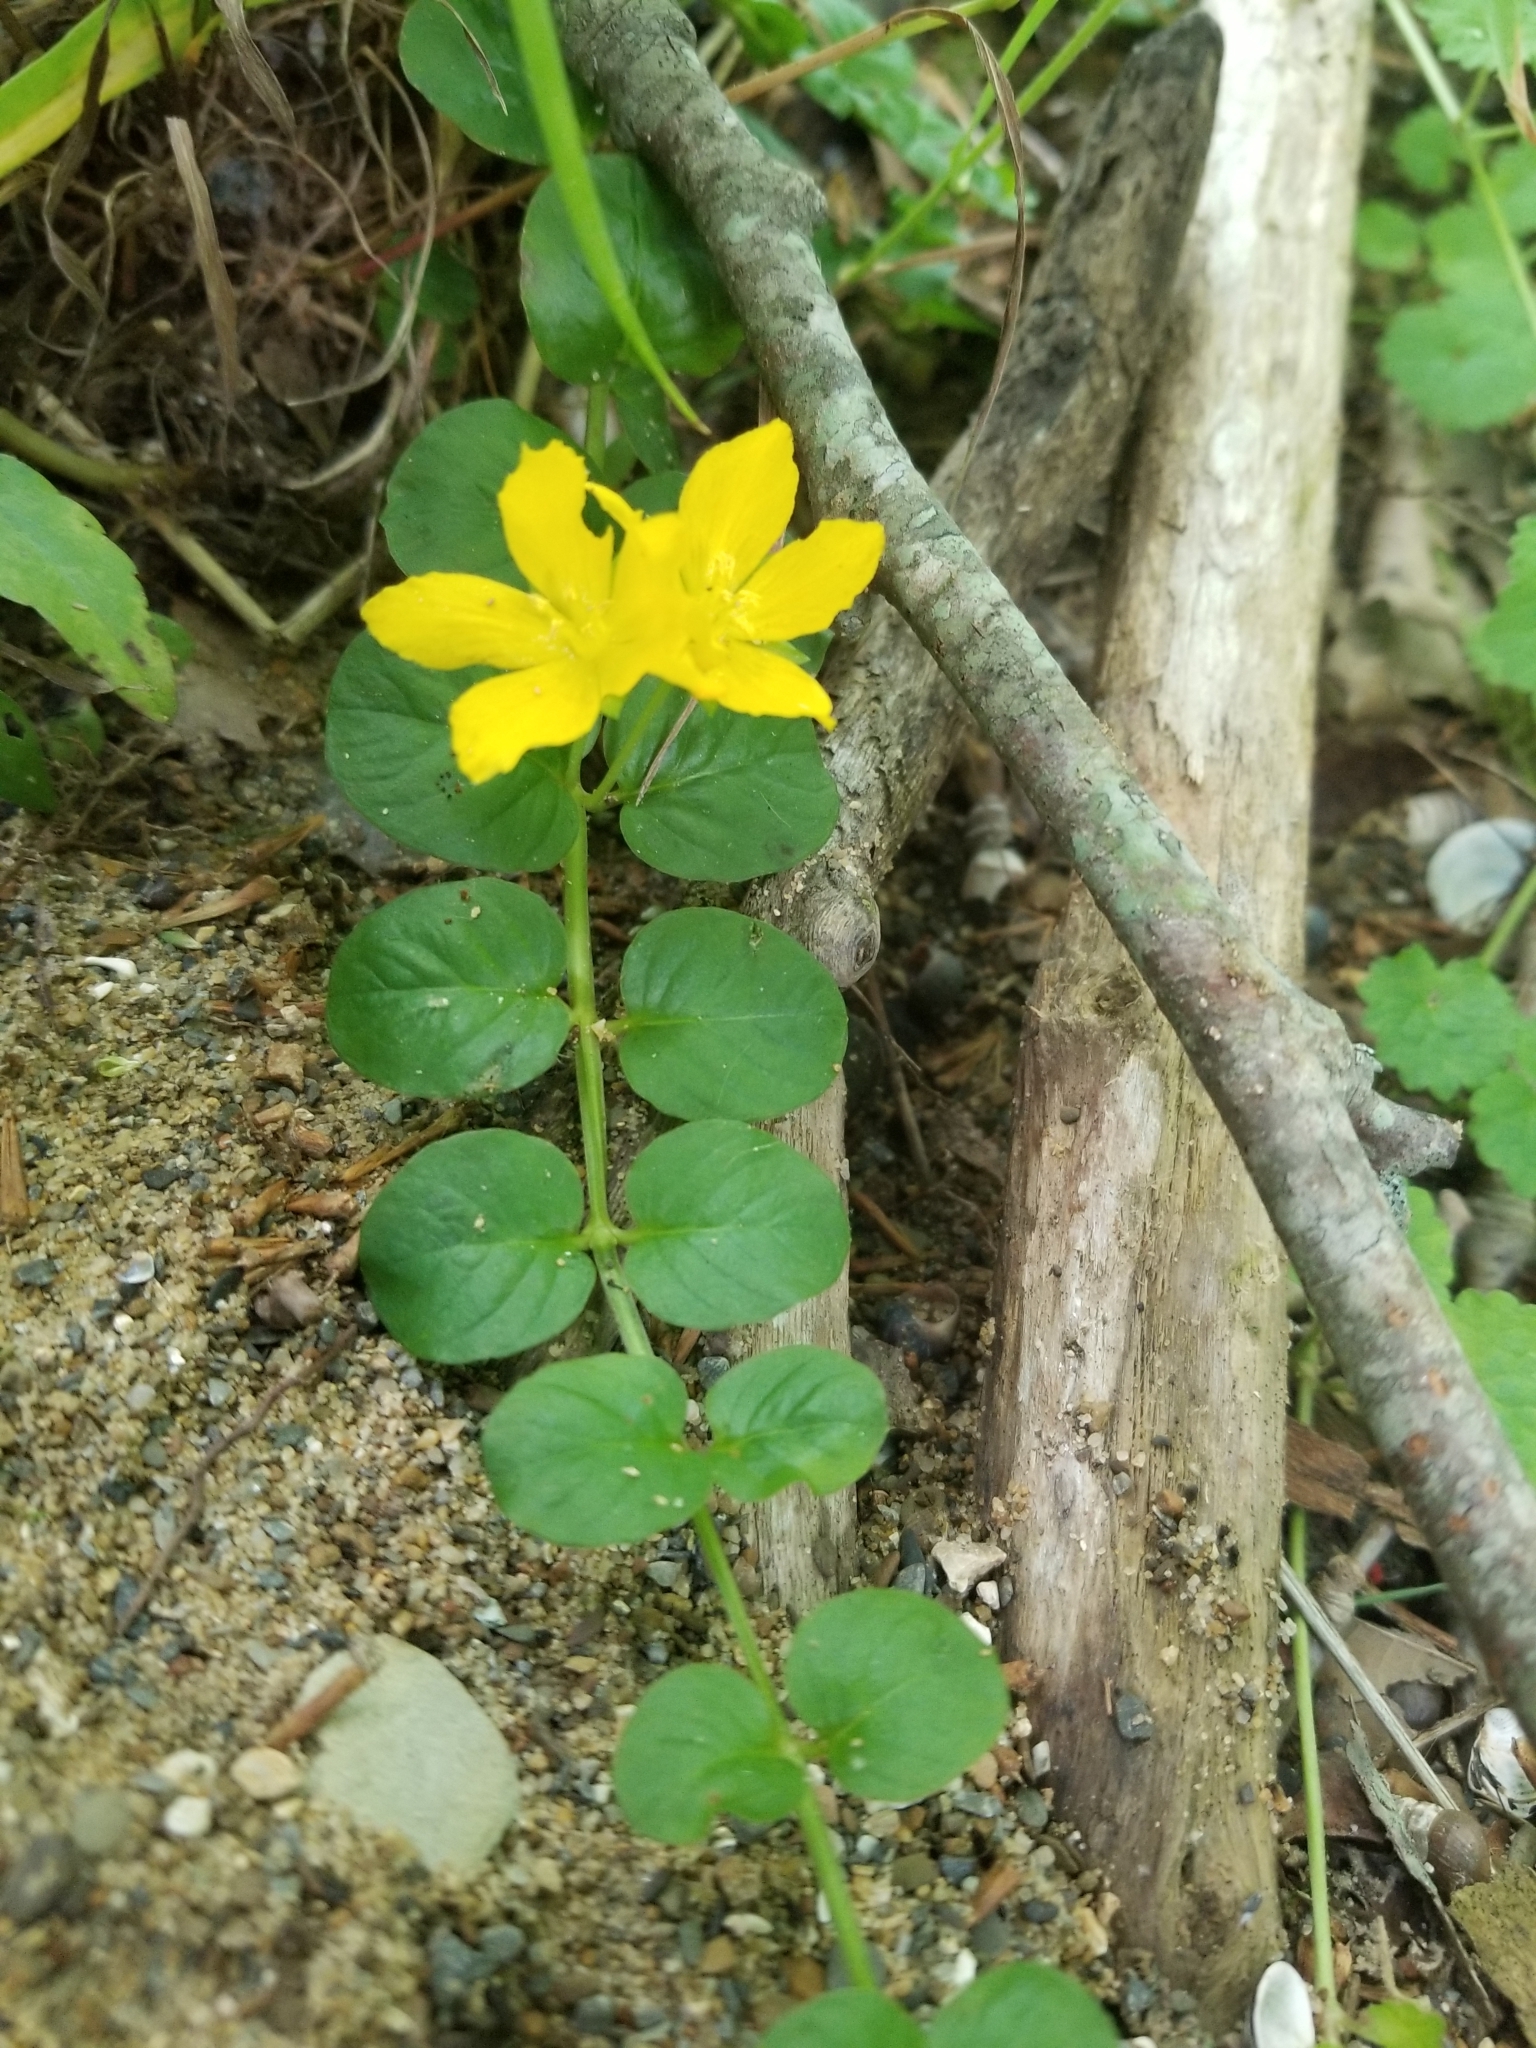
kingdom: Plantae
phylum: Tracheophyta
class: Magnoliopsida
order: Ericales
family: Primulaceae
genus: Lysimachia
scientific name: Lysimachia nummularia
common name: Moneywort
